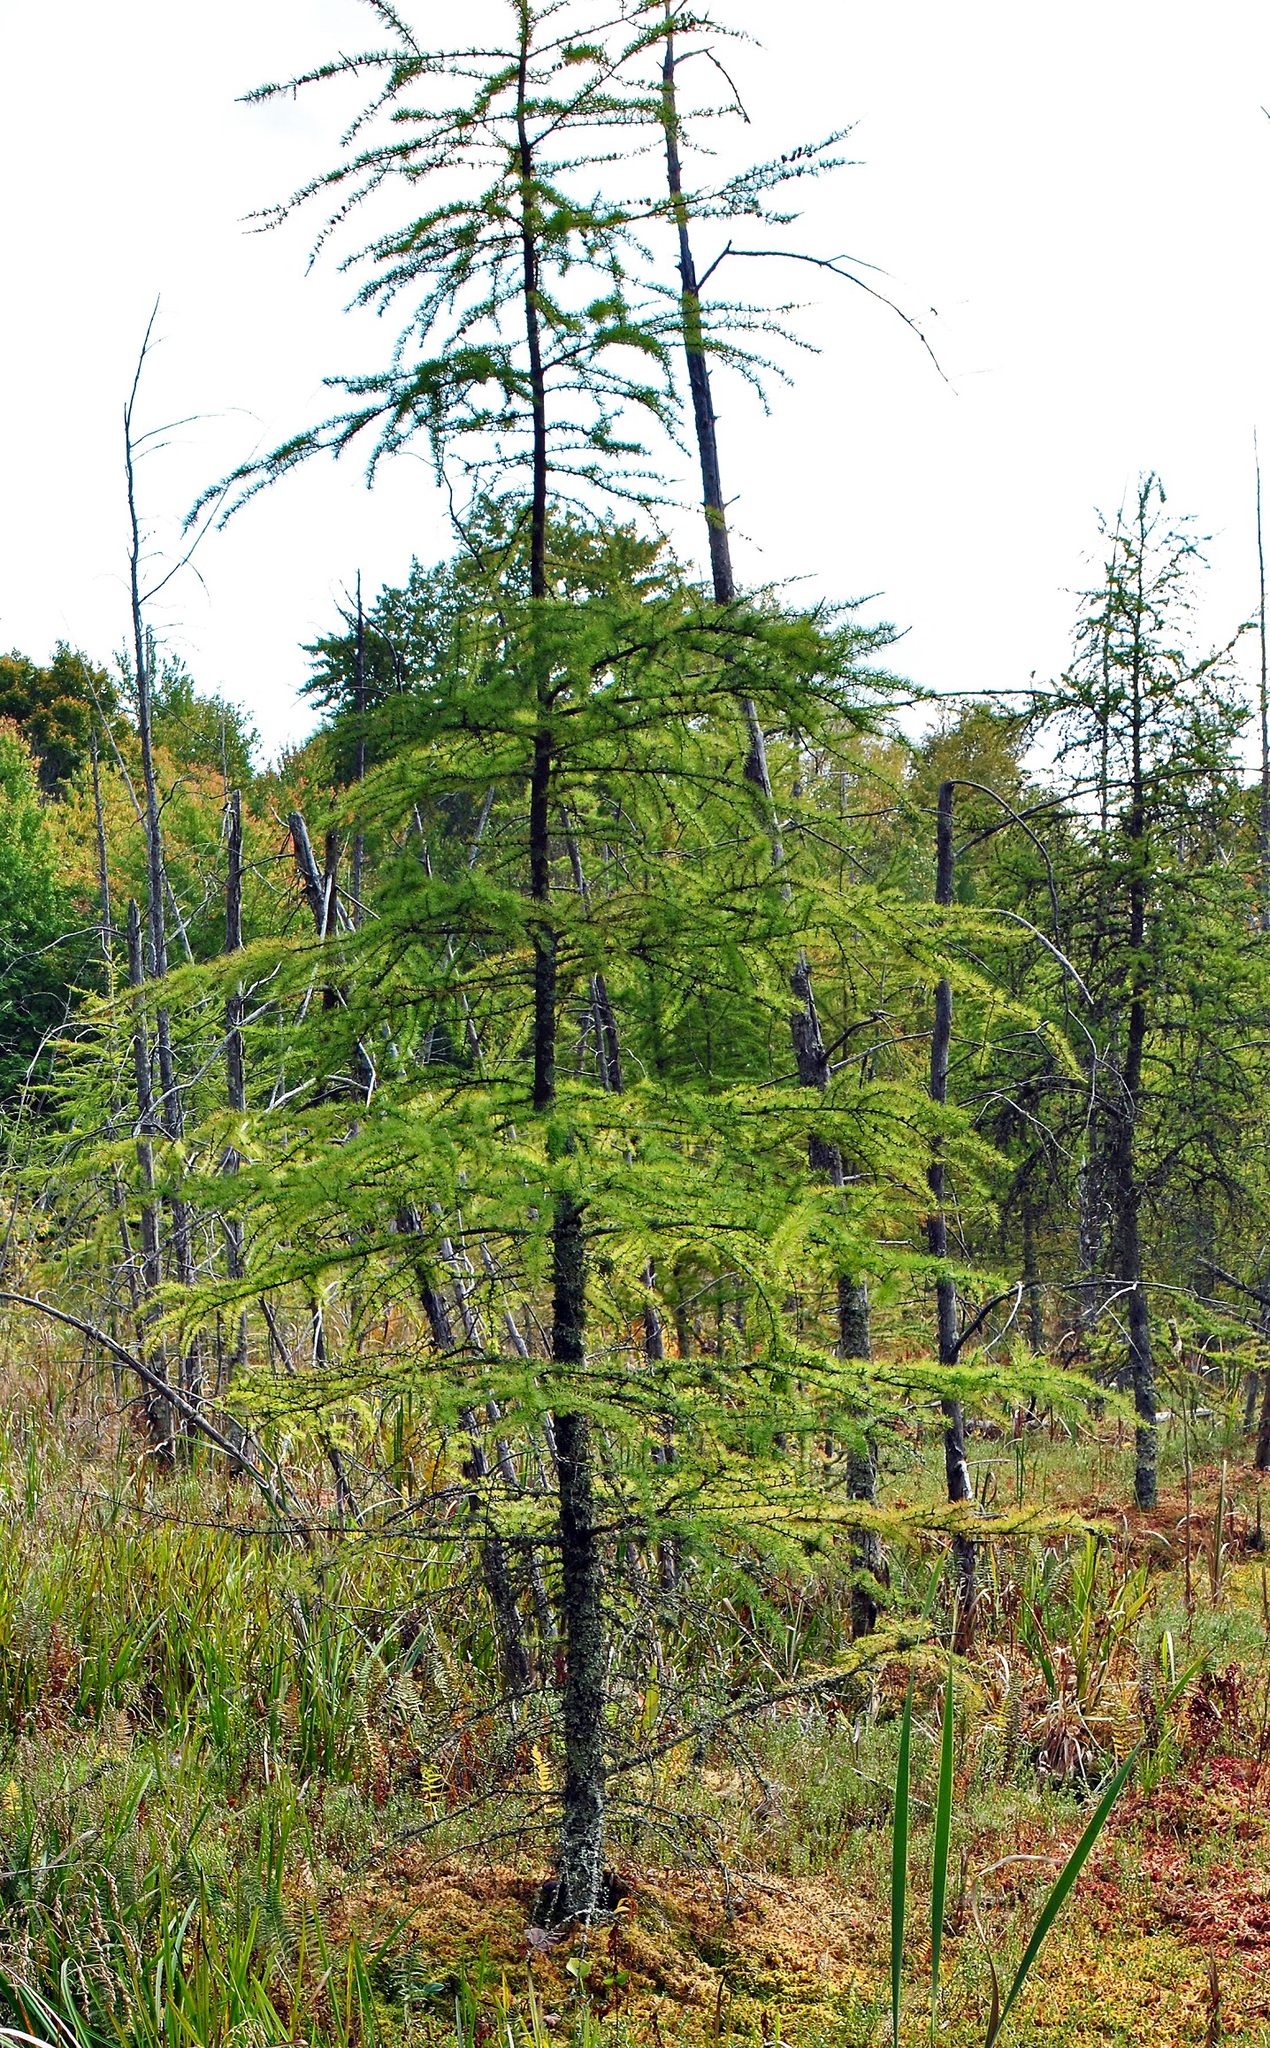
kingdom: Plantae
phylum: Tracheophyta
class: Pinopsida
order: Pinales
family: Pinaceae
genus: Larix
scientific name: Larix laricina
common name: American larch
